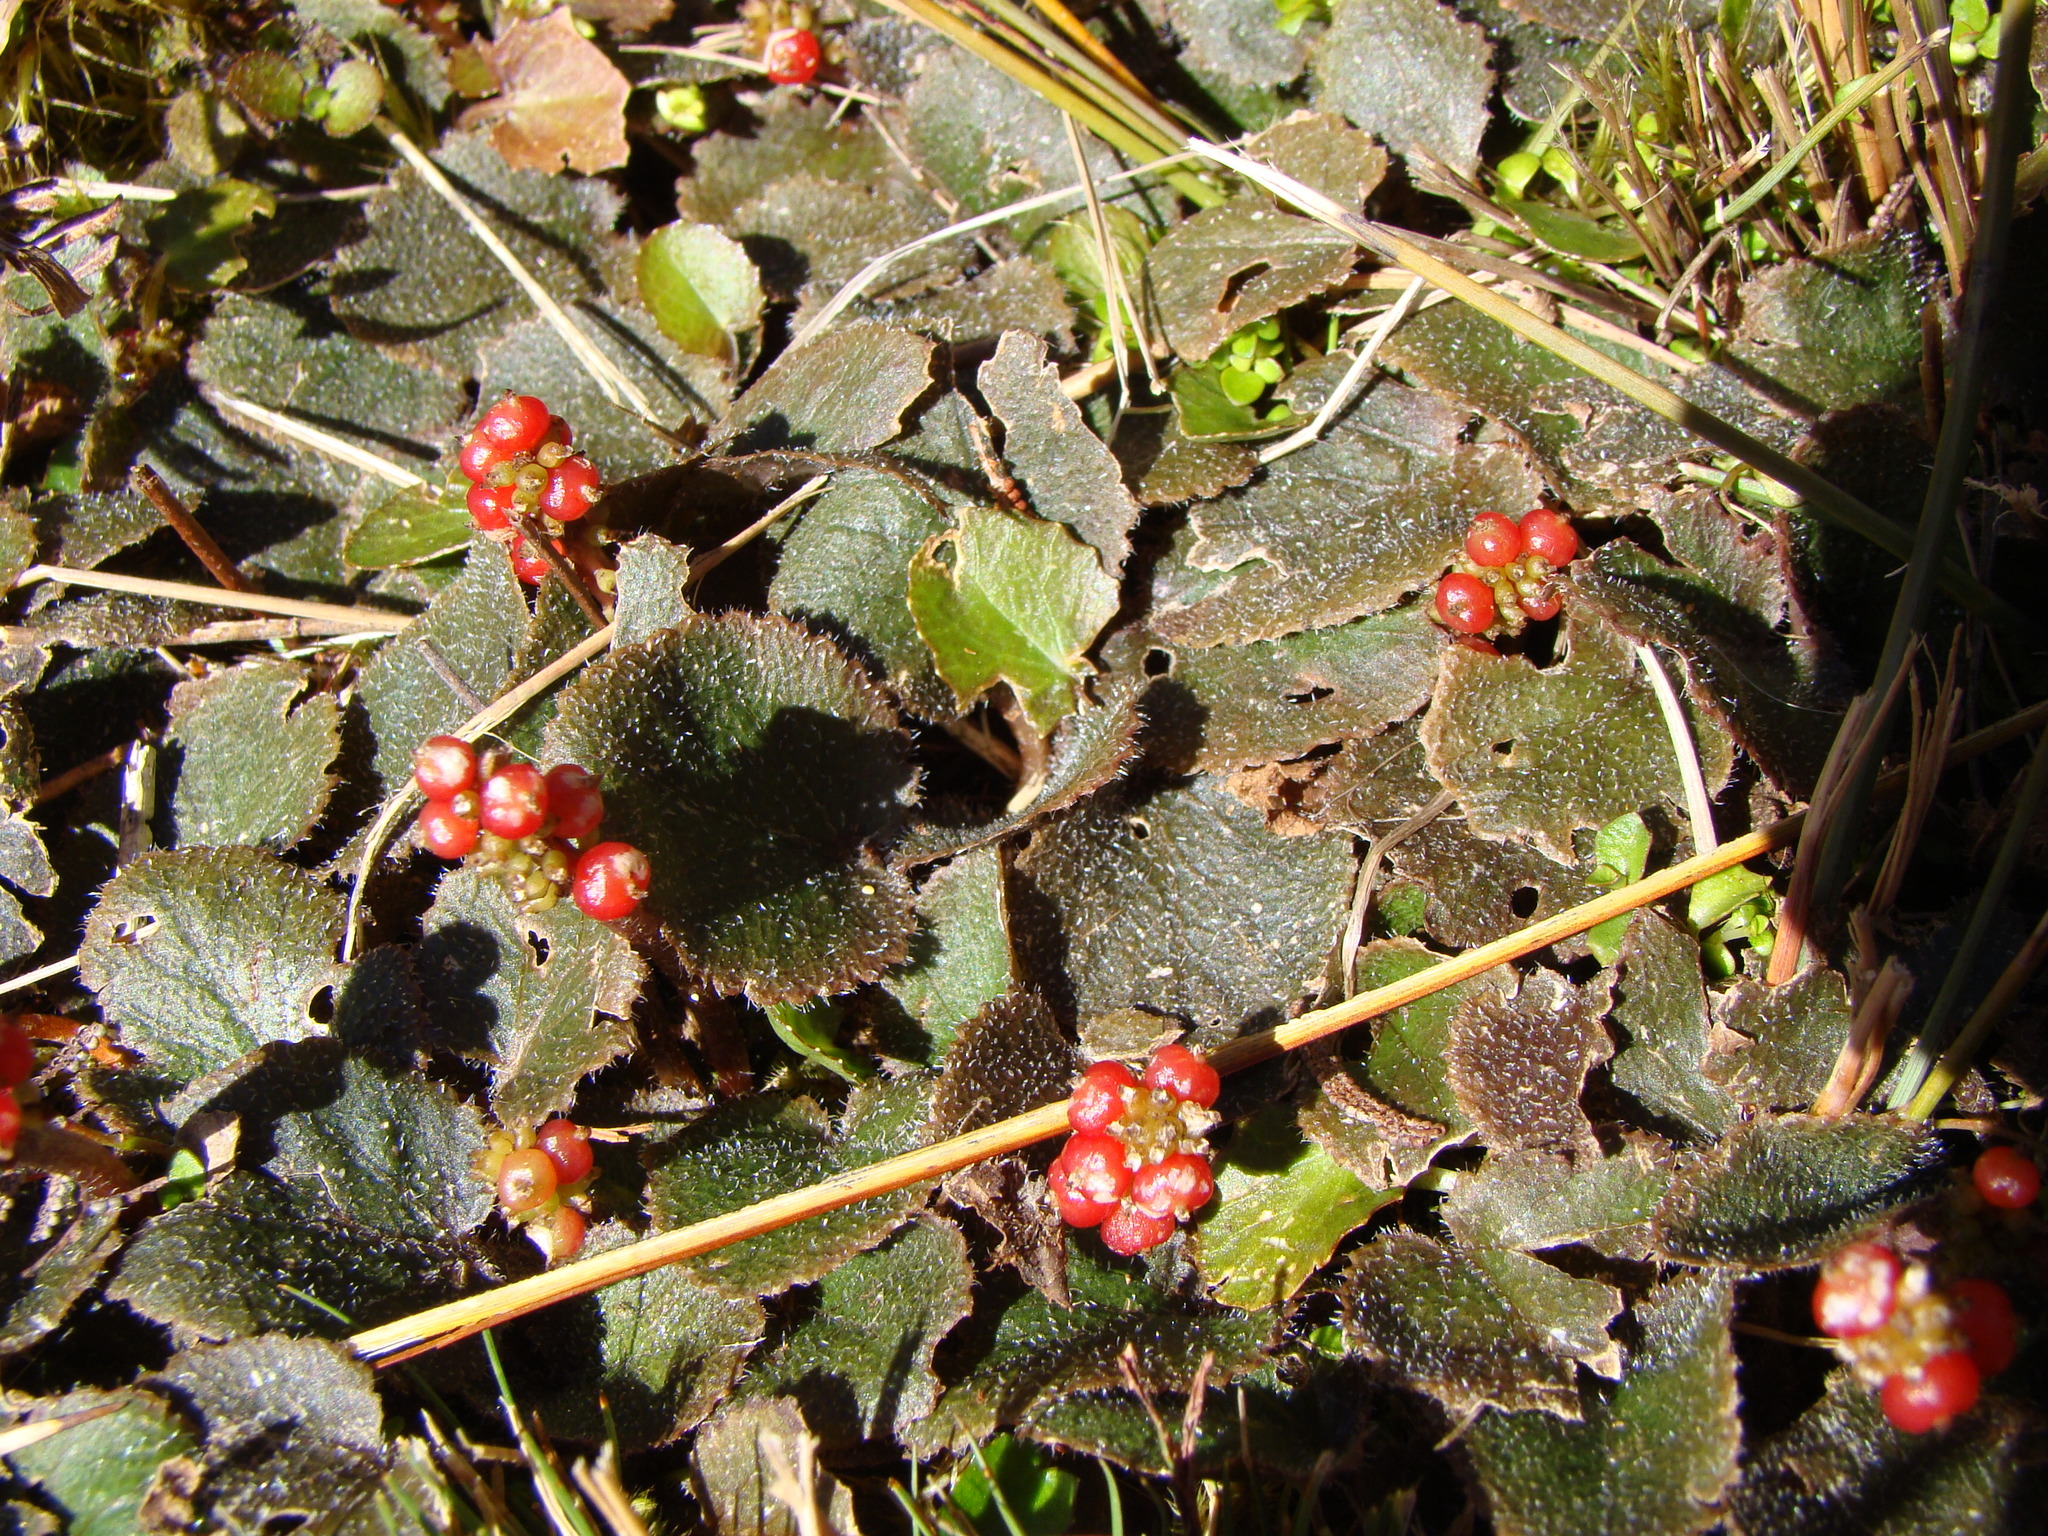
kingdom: Plantae
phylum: Tracheophyta
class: Magnoliopsida
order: Gunnerales
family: Gunneraceae
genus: Gunnera
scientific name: Gunnera prorepens
